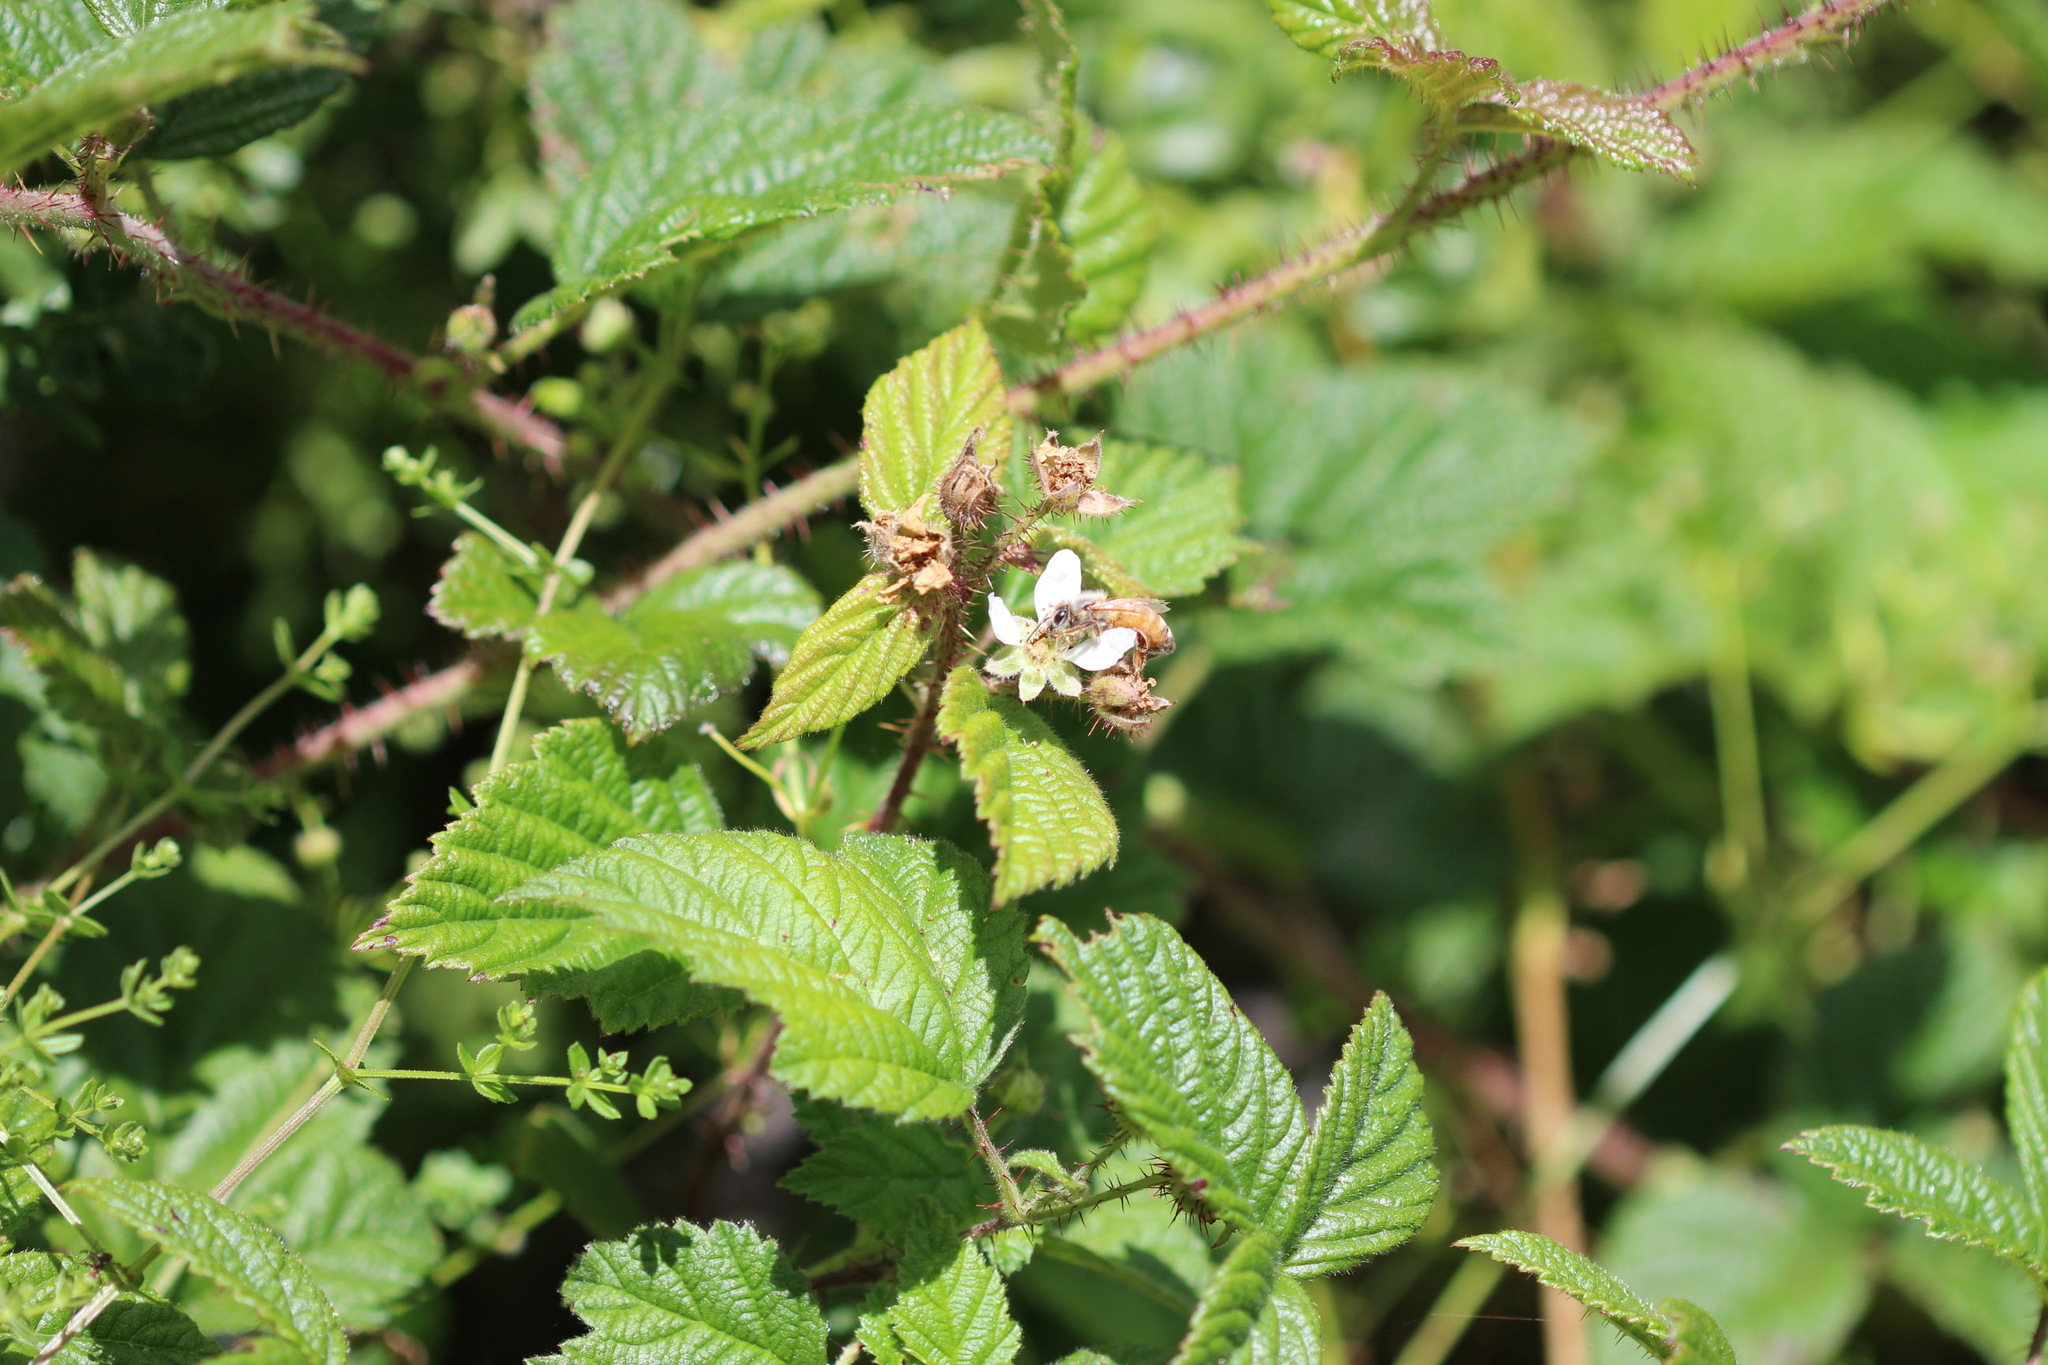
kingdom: Plantae
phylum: Tracheophyta
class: Magnoliopsida
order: Rosales
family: Rosaceae
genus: Rubus
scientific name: Rubus ursinus
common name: Pacific blackberry
